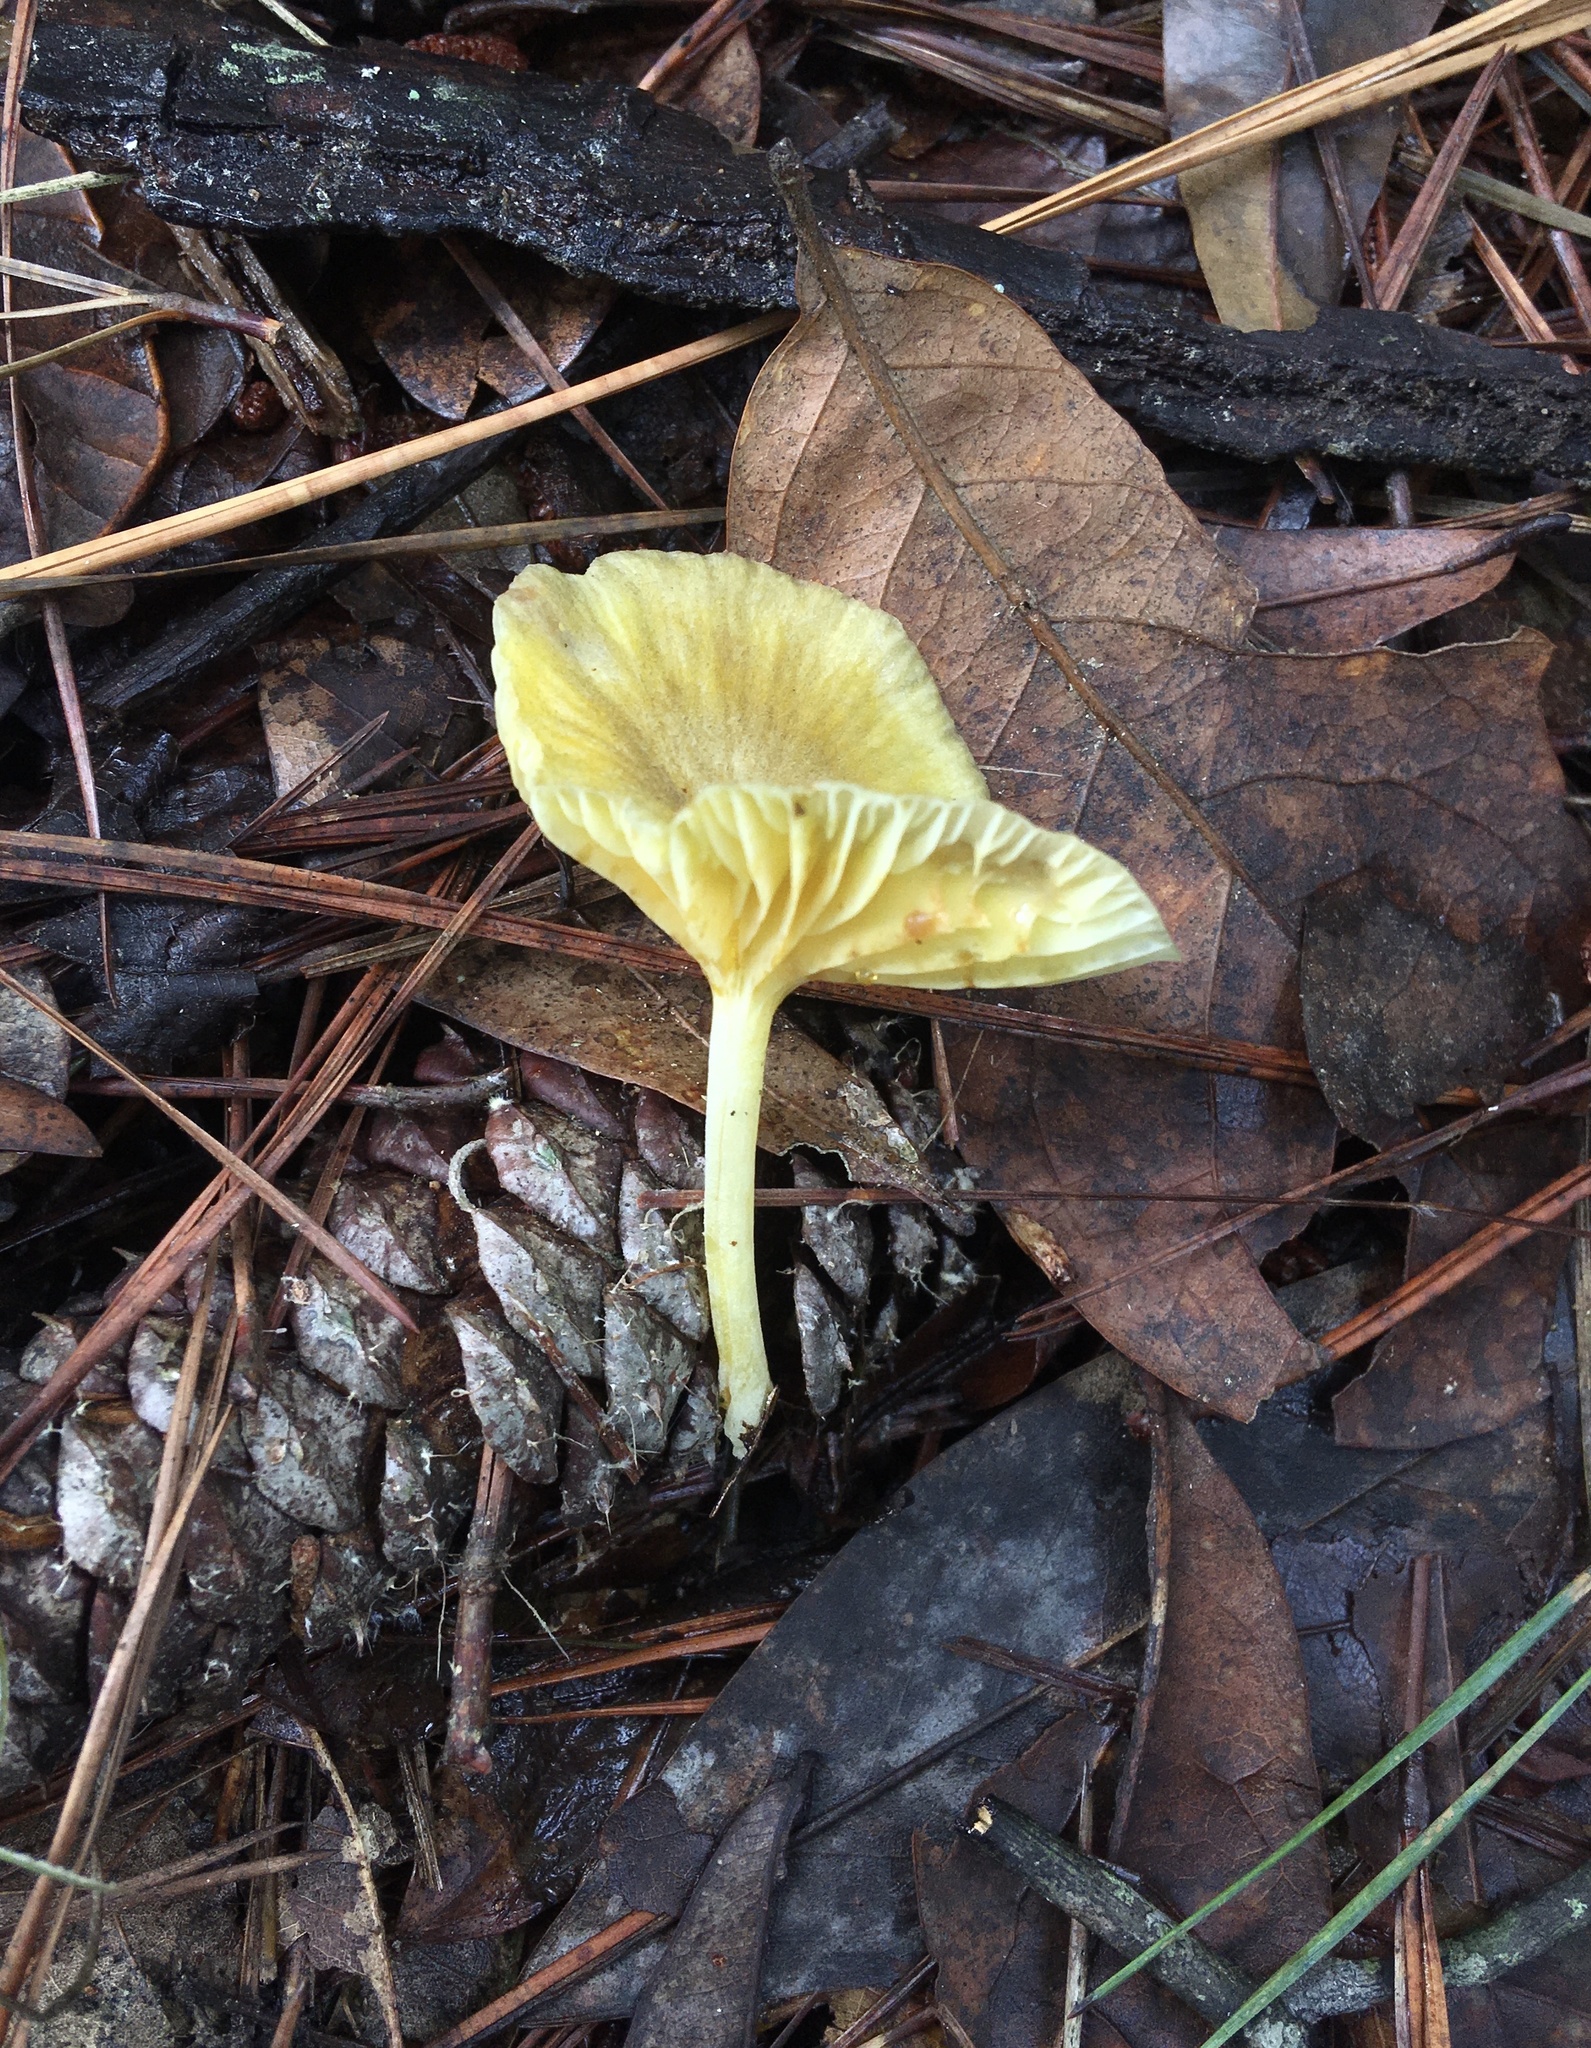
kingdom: Fungi
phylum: Basidiomycota
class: Agaricomycetes
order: Agaricales
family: Marasmiaceae
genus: Gerronema
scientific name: Gerronema strombodes
